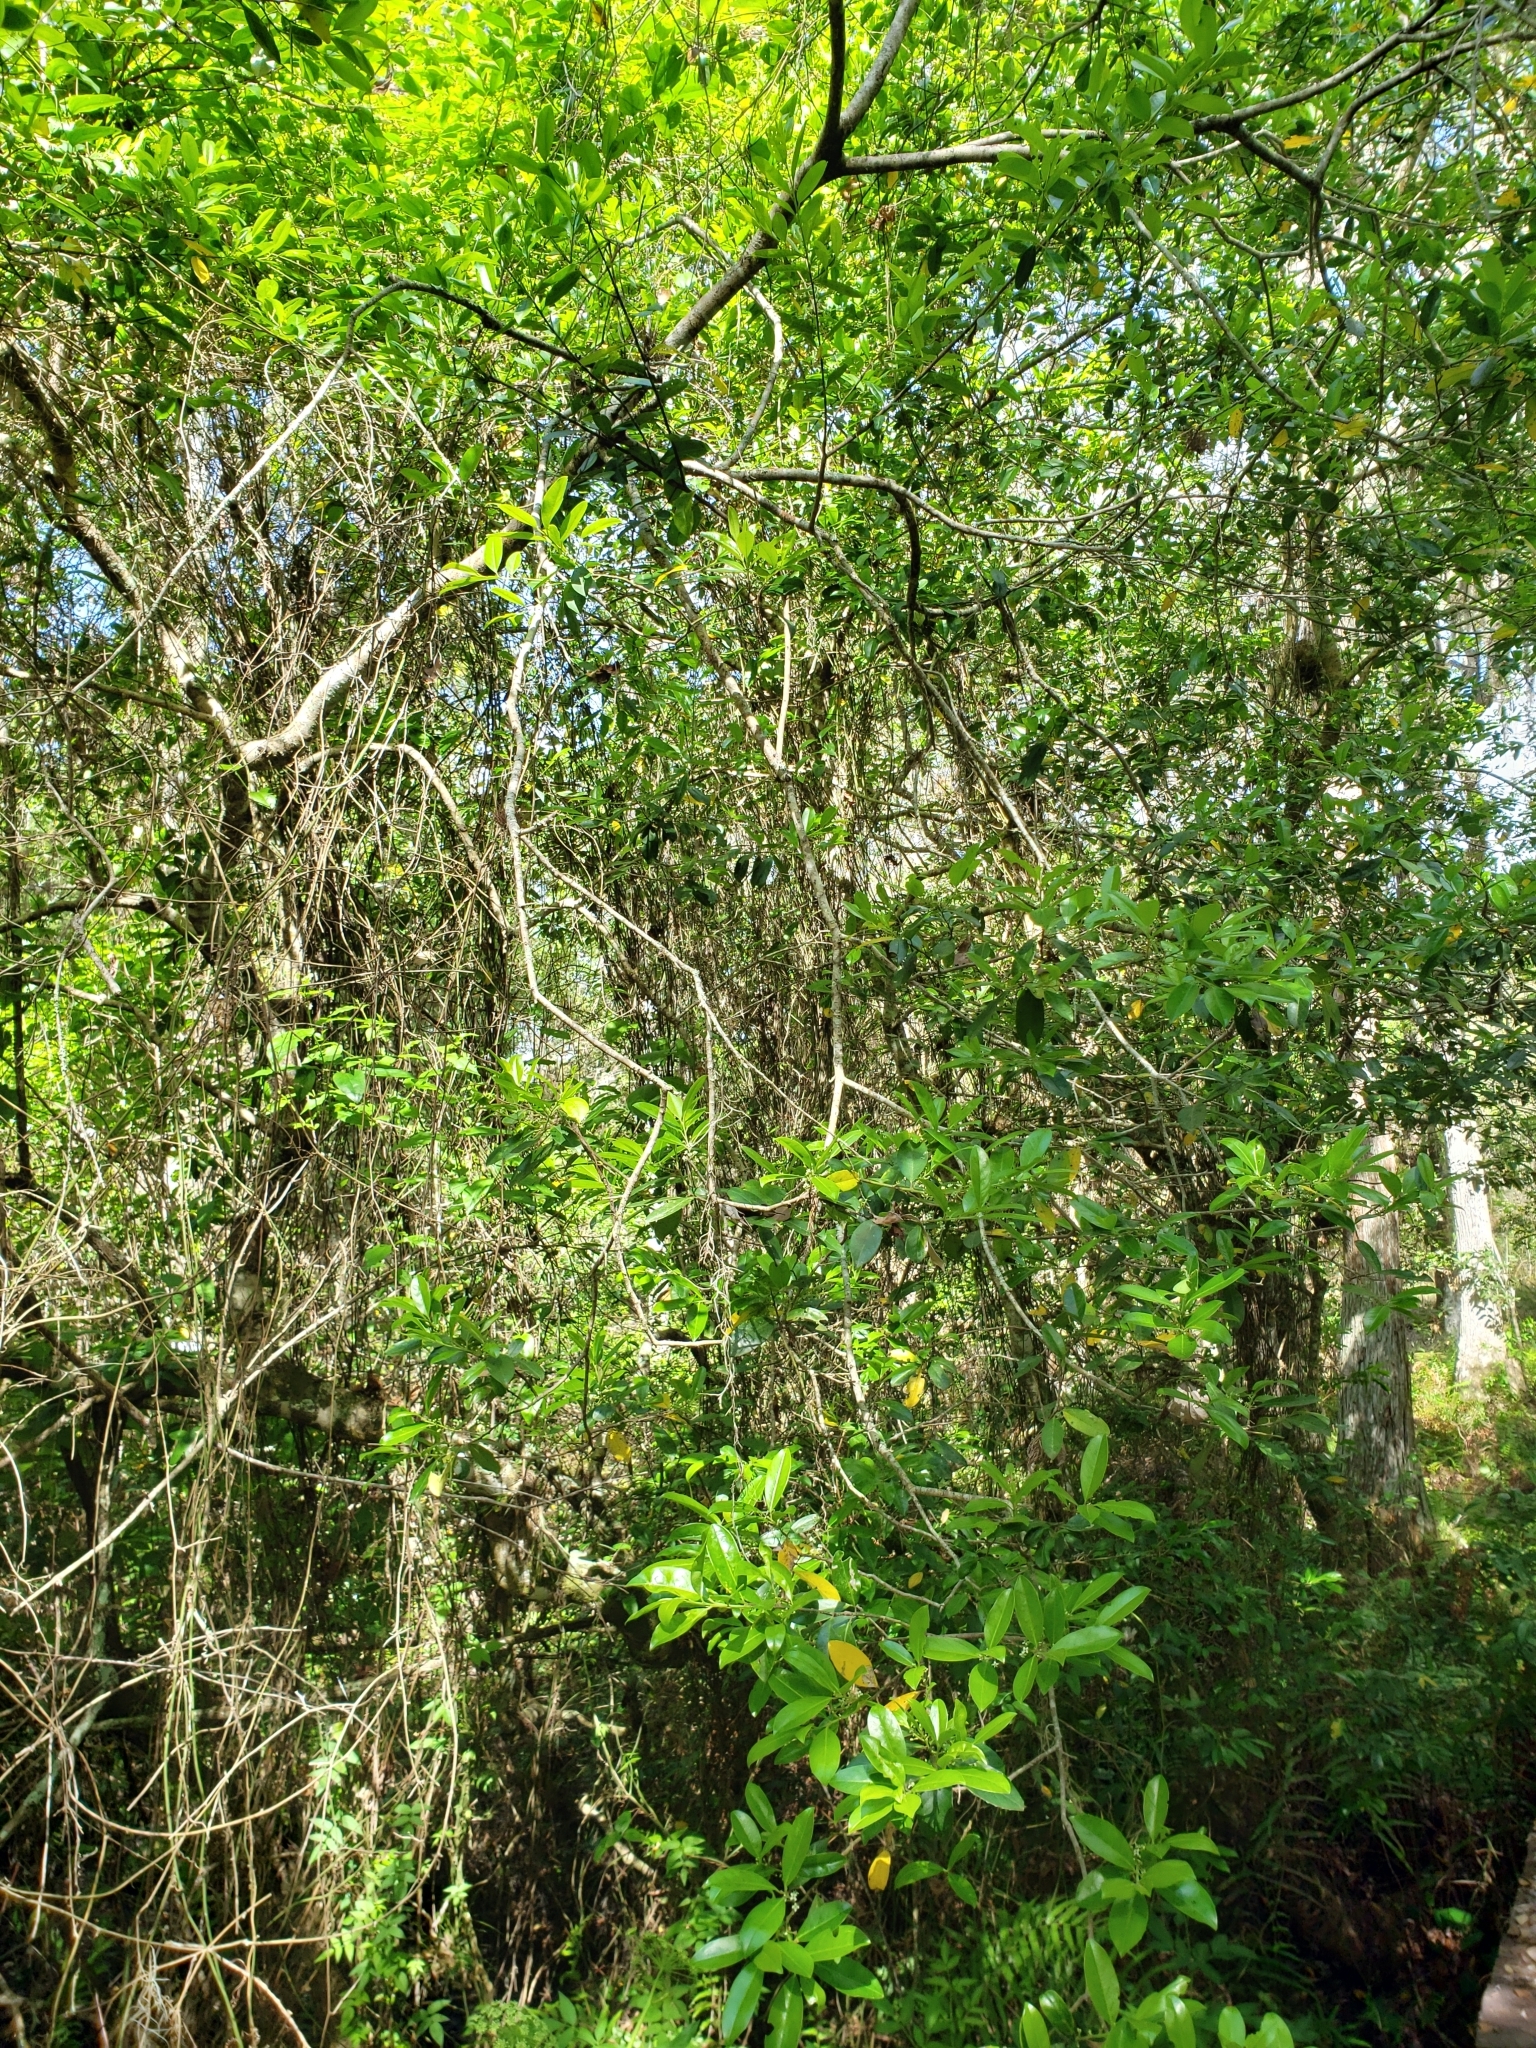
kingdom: Plantae
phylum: Tracheophyta
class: Magnoliopsida
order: Aquifoliales
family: Aquifoliaceae
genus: Ilex
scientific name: Ilex cassine
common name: Dahoon
